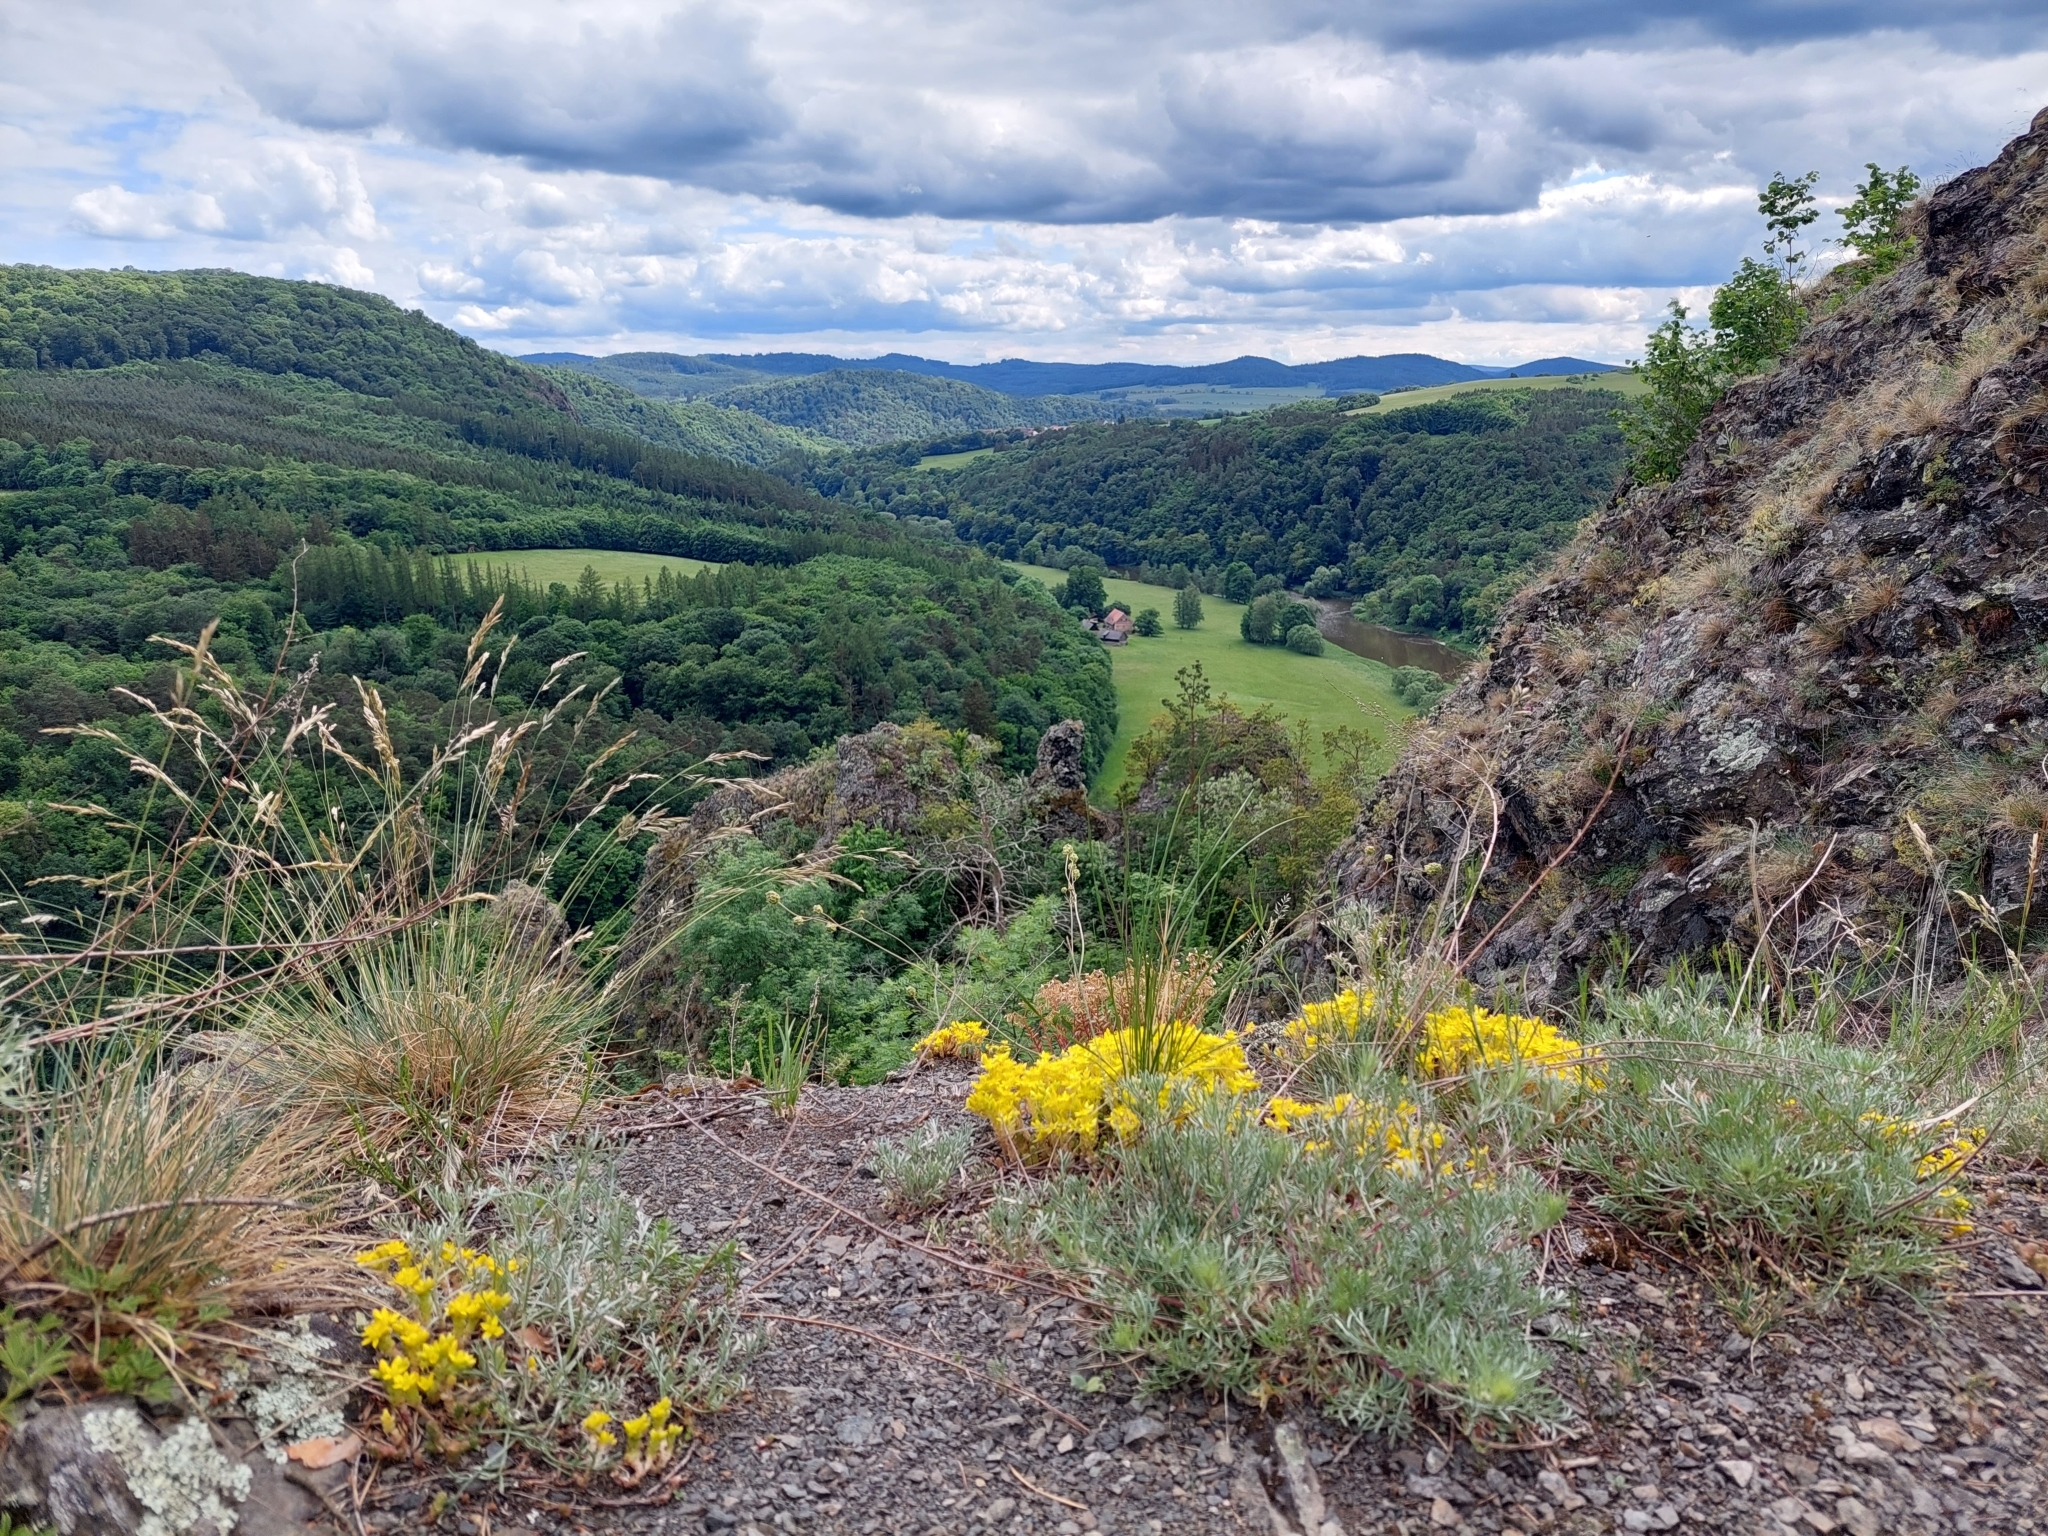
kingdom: Plantae
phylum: Tracheophyta
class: Magnoliopsida
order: Saxifragales
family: Crassulaceae
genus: Sedum
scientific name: Sedum acre
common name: Biting stonecrop
